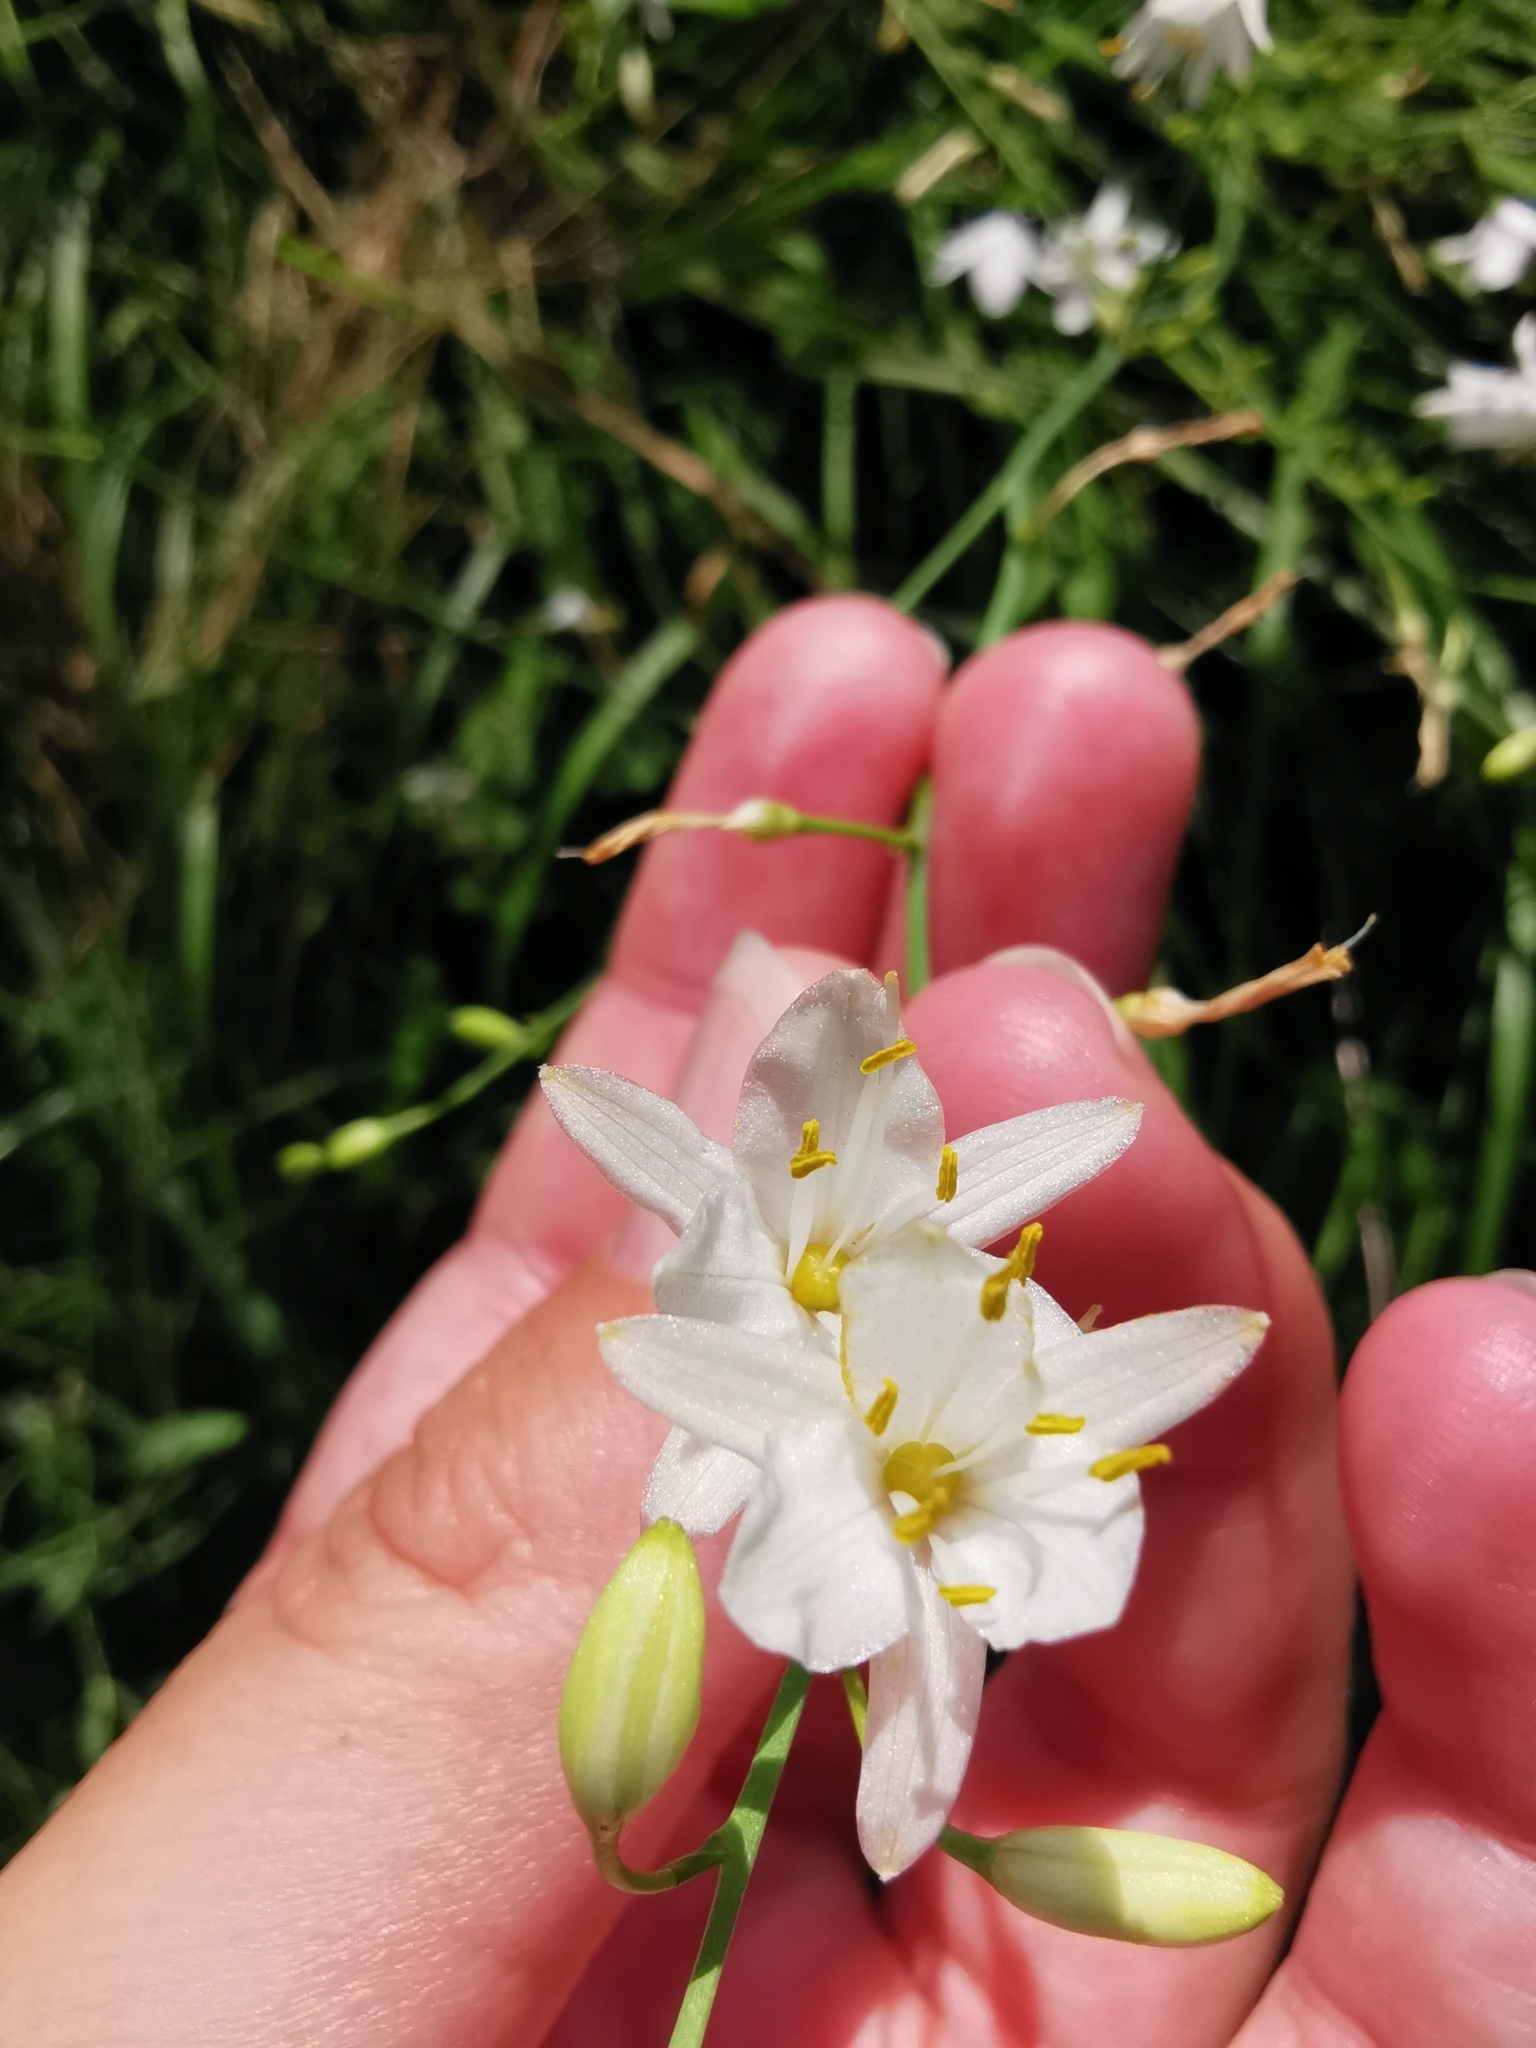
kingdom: Plantae
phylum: Tracheophyta
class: Liliopsida
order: Asparagales
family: Asparagaceae
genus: Anthericum
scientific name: Anthericum ramosum
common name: Branched st. bernard's-lily
